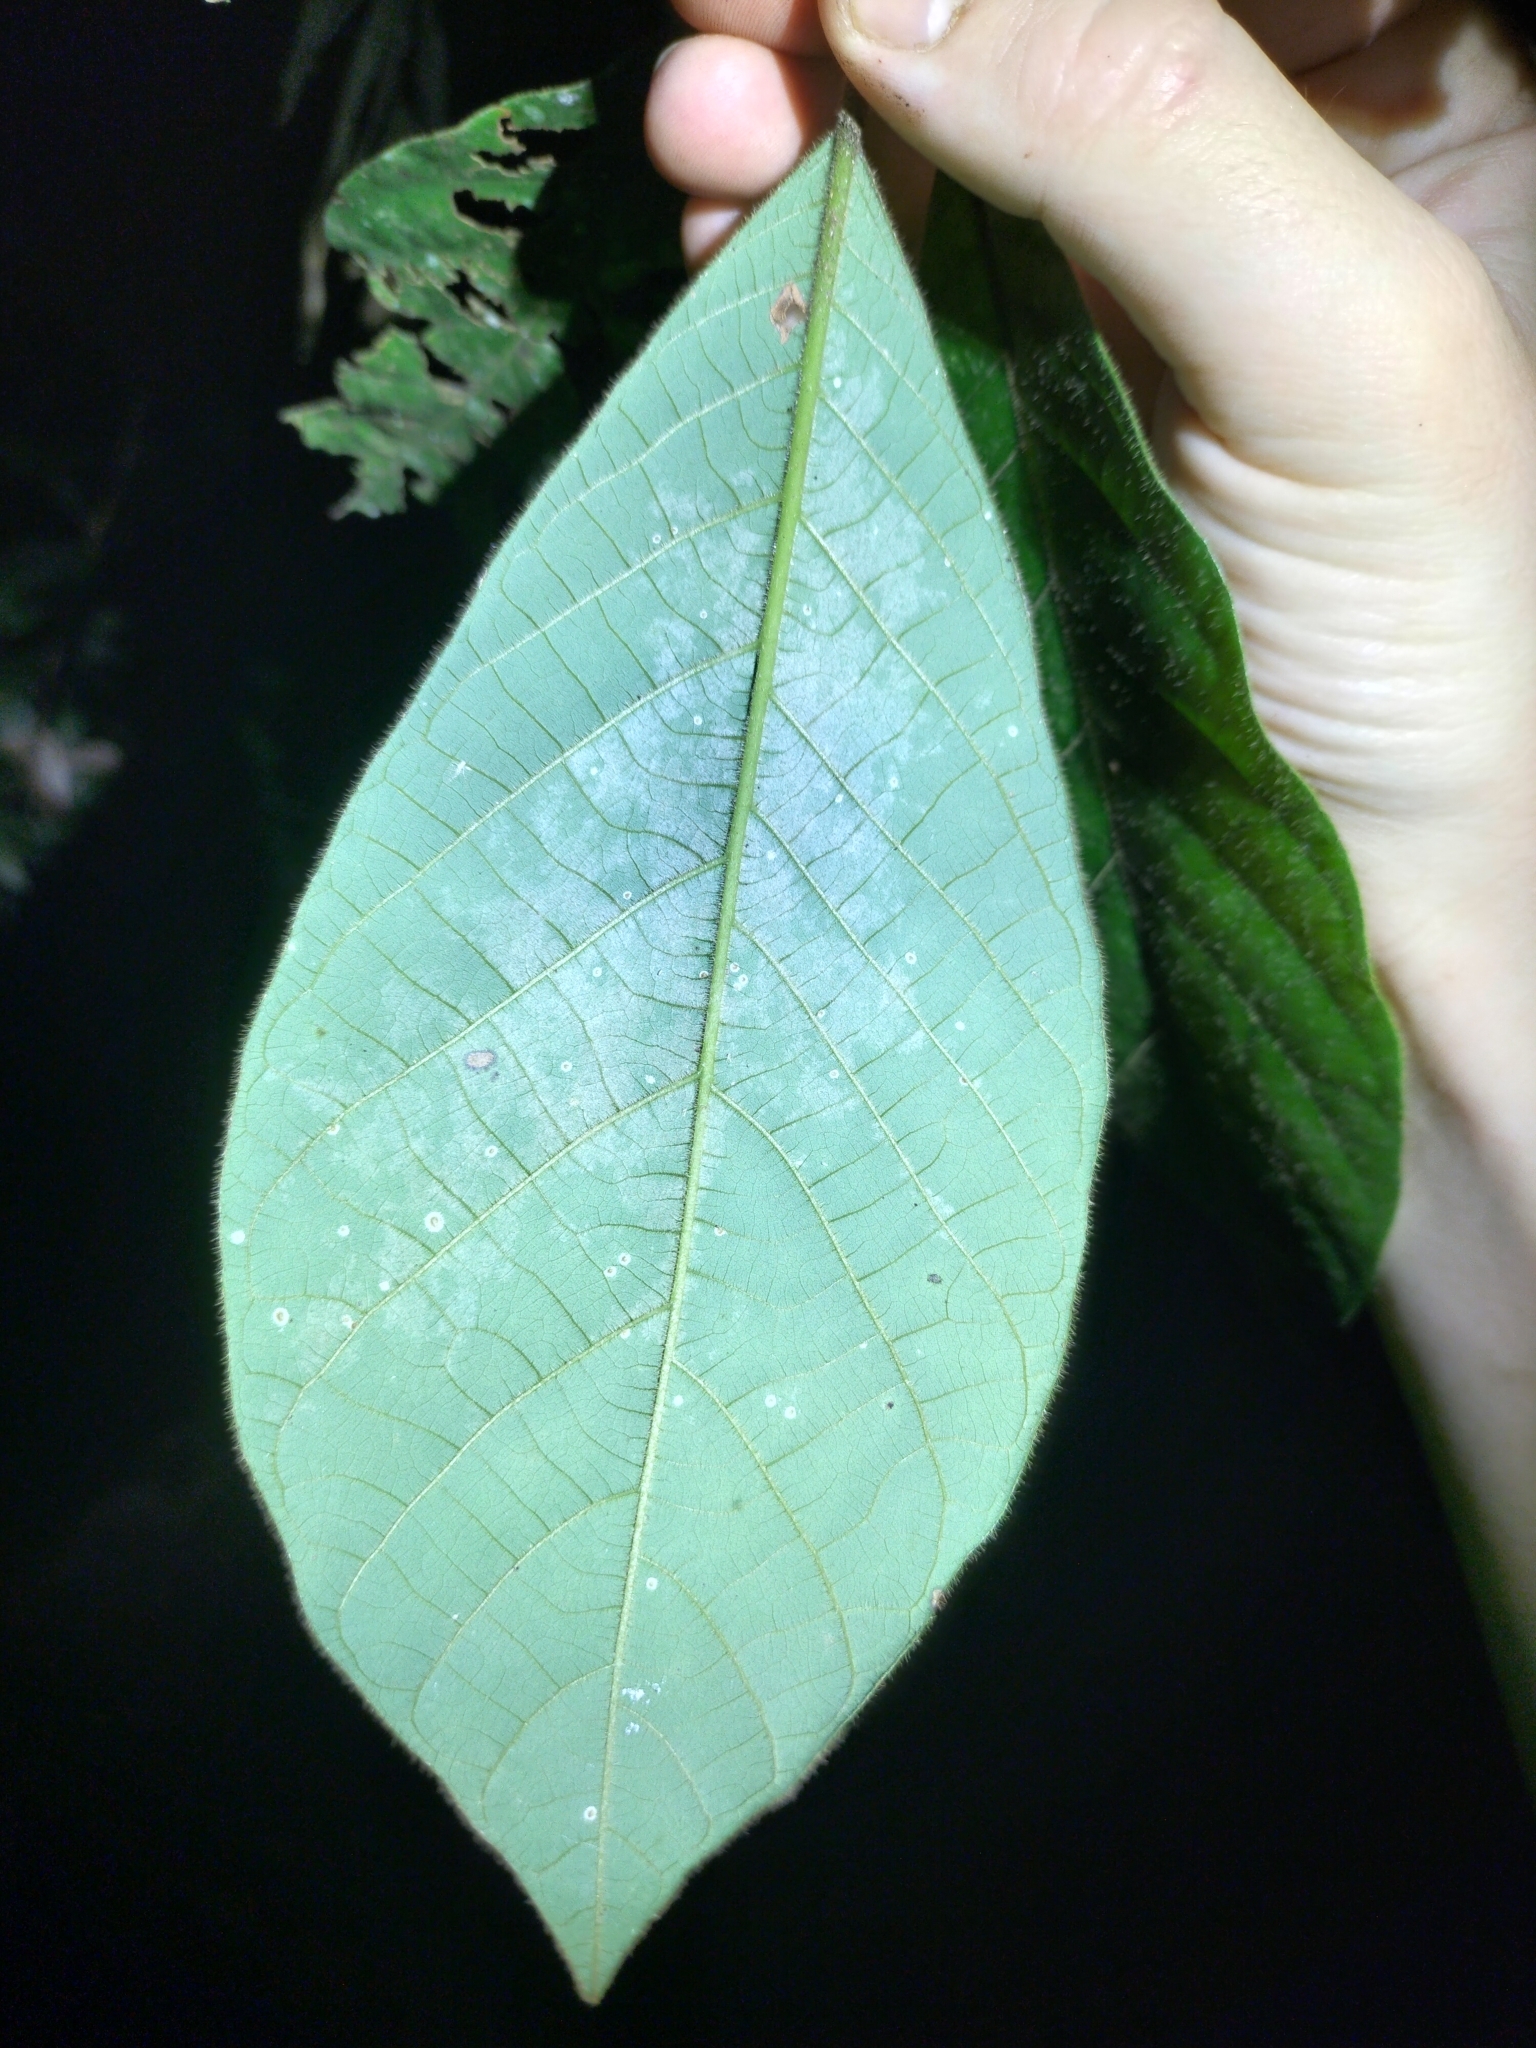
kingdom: Plantae
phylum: Tracheophyta
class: Magnoliopsida
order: Laurales
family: Lauraceae
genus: Litsea
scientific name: Litsea leefeana
